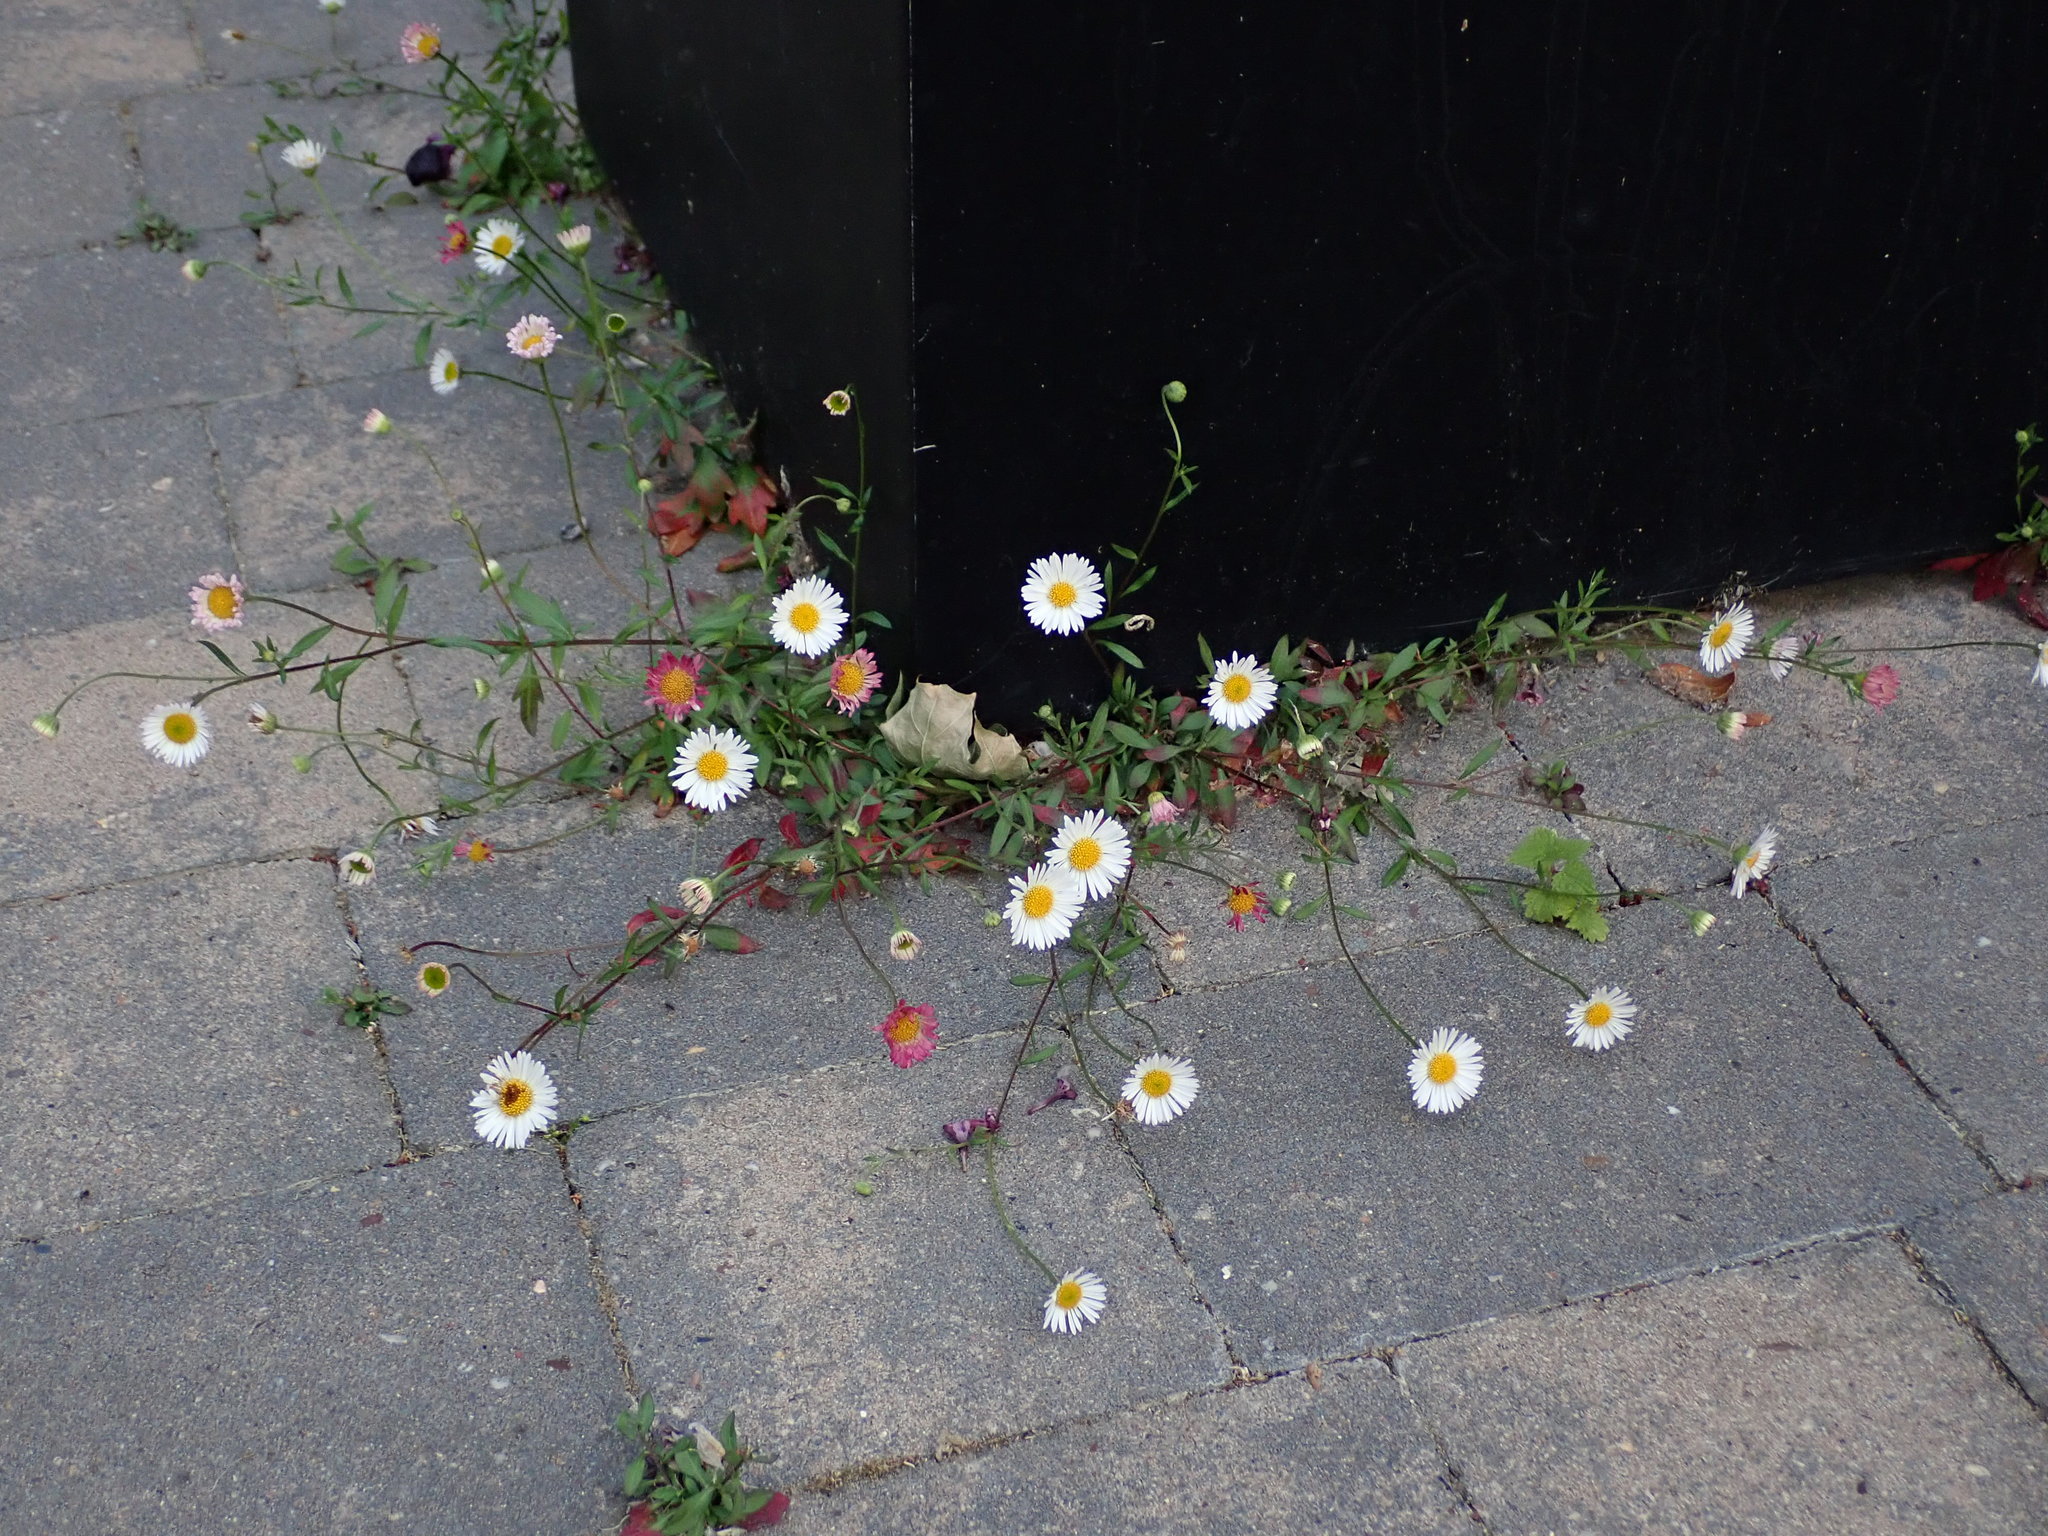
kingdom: Plantae
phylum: Tracheophyta
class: Magnoliopsida
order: Asterales
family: Asteraceae
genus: Erigeron
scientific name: Erigeron karvinskianus
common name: Mexican fleabane
